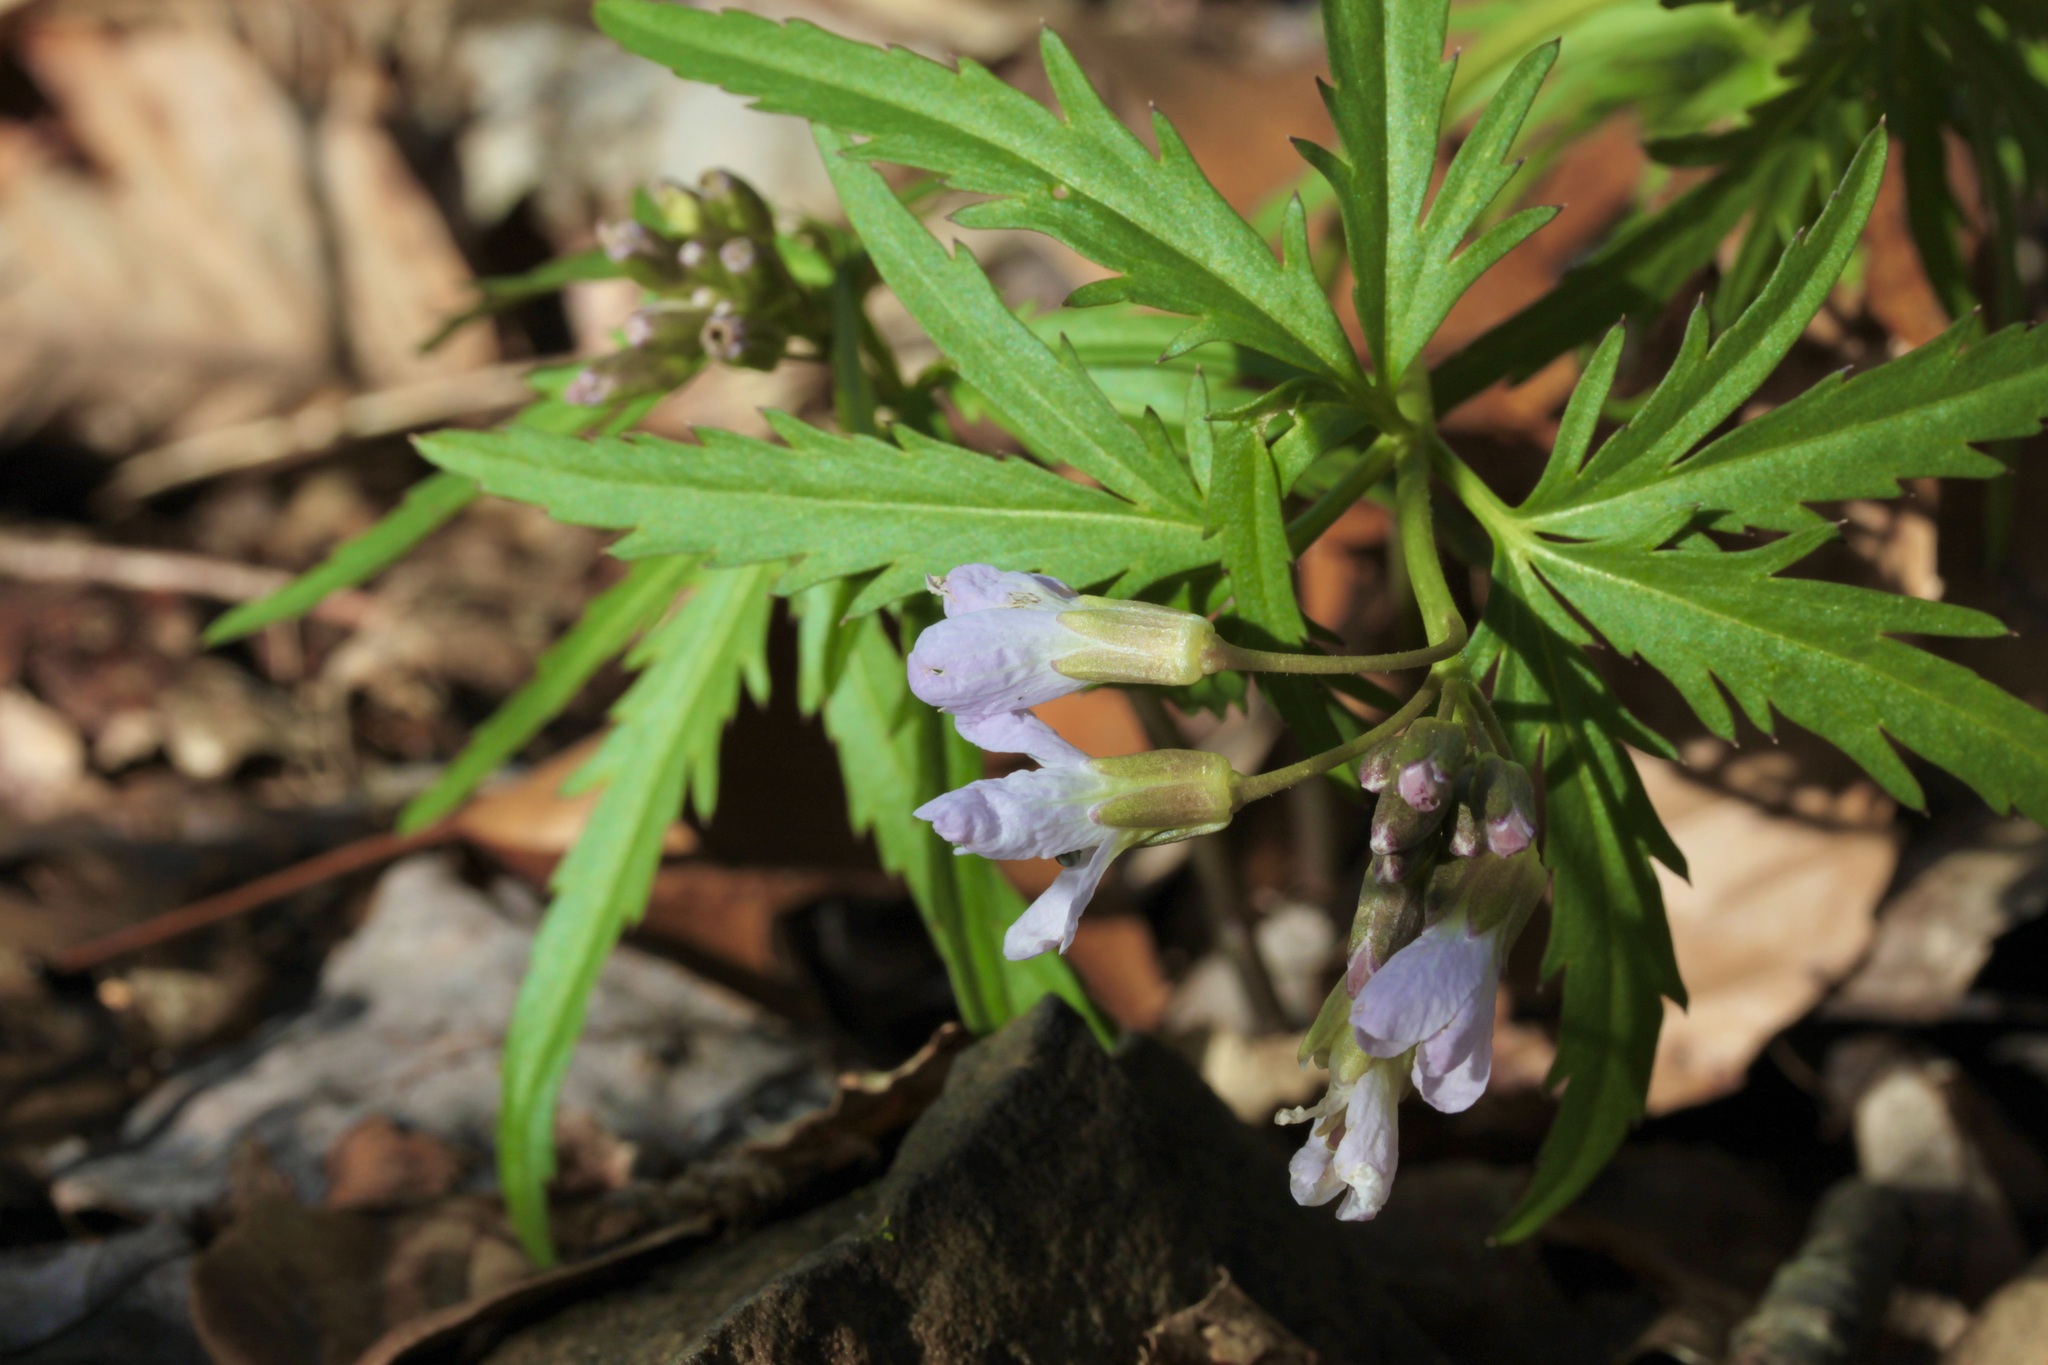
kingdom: Plantae
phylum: Tracheophyta
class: Magnoliopsida
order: Brassicales
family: Brassicaceae
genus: Cardamine
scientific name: Cardamine concatenata
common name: Cut-leaf toothcup
